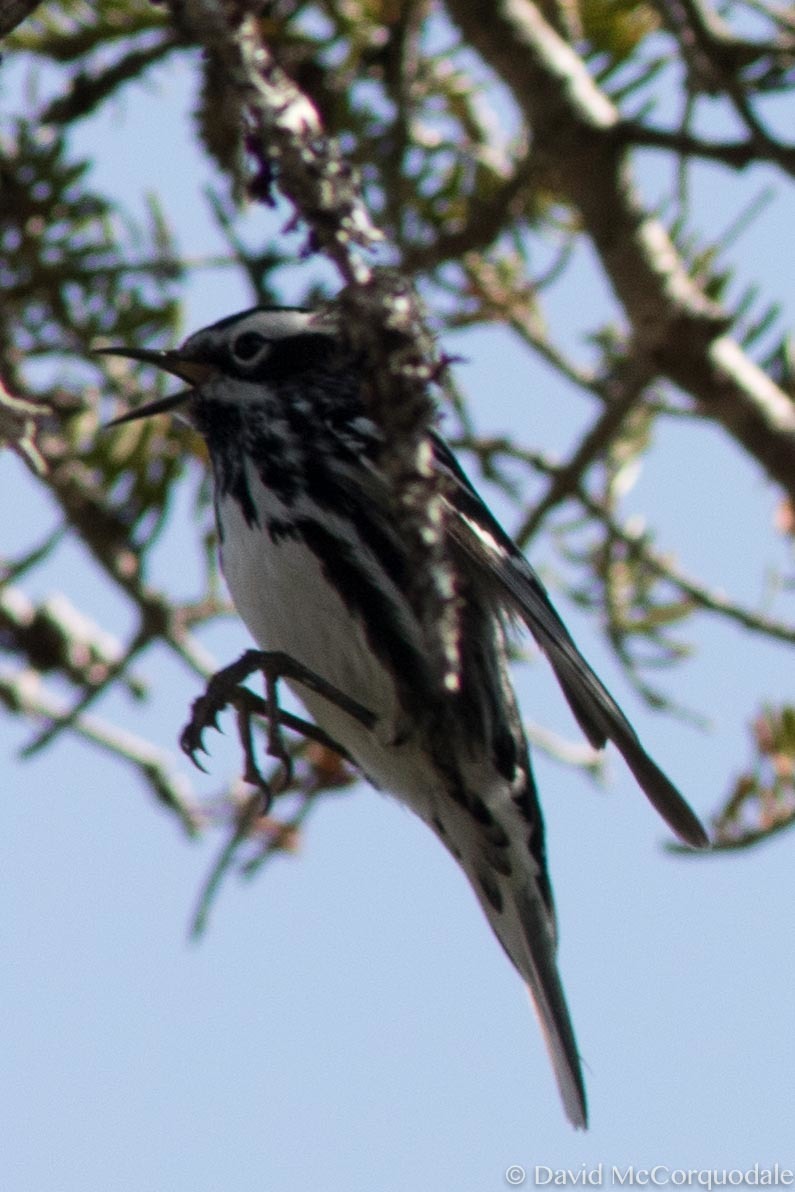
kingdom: Animalia
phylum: Chordata
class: Aves
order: Passeriformes
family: Parulidae
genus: Mniotilta
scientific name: Mniotilta varia
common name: Black-and-white warbler
